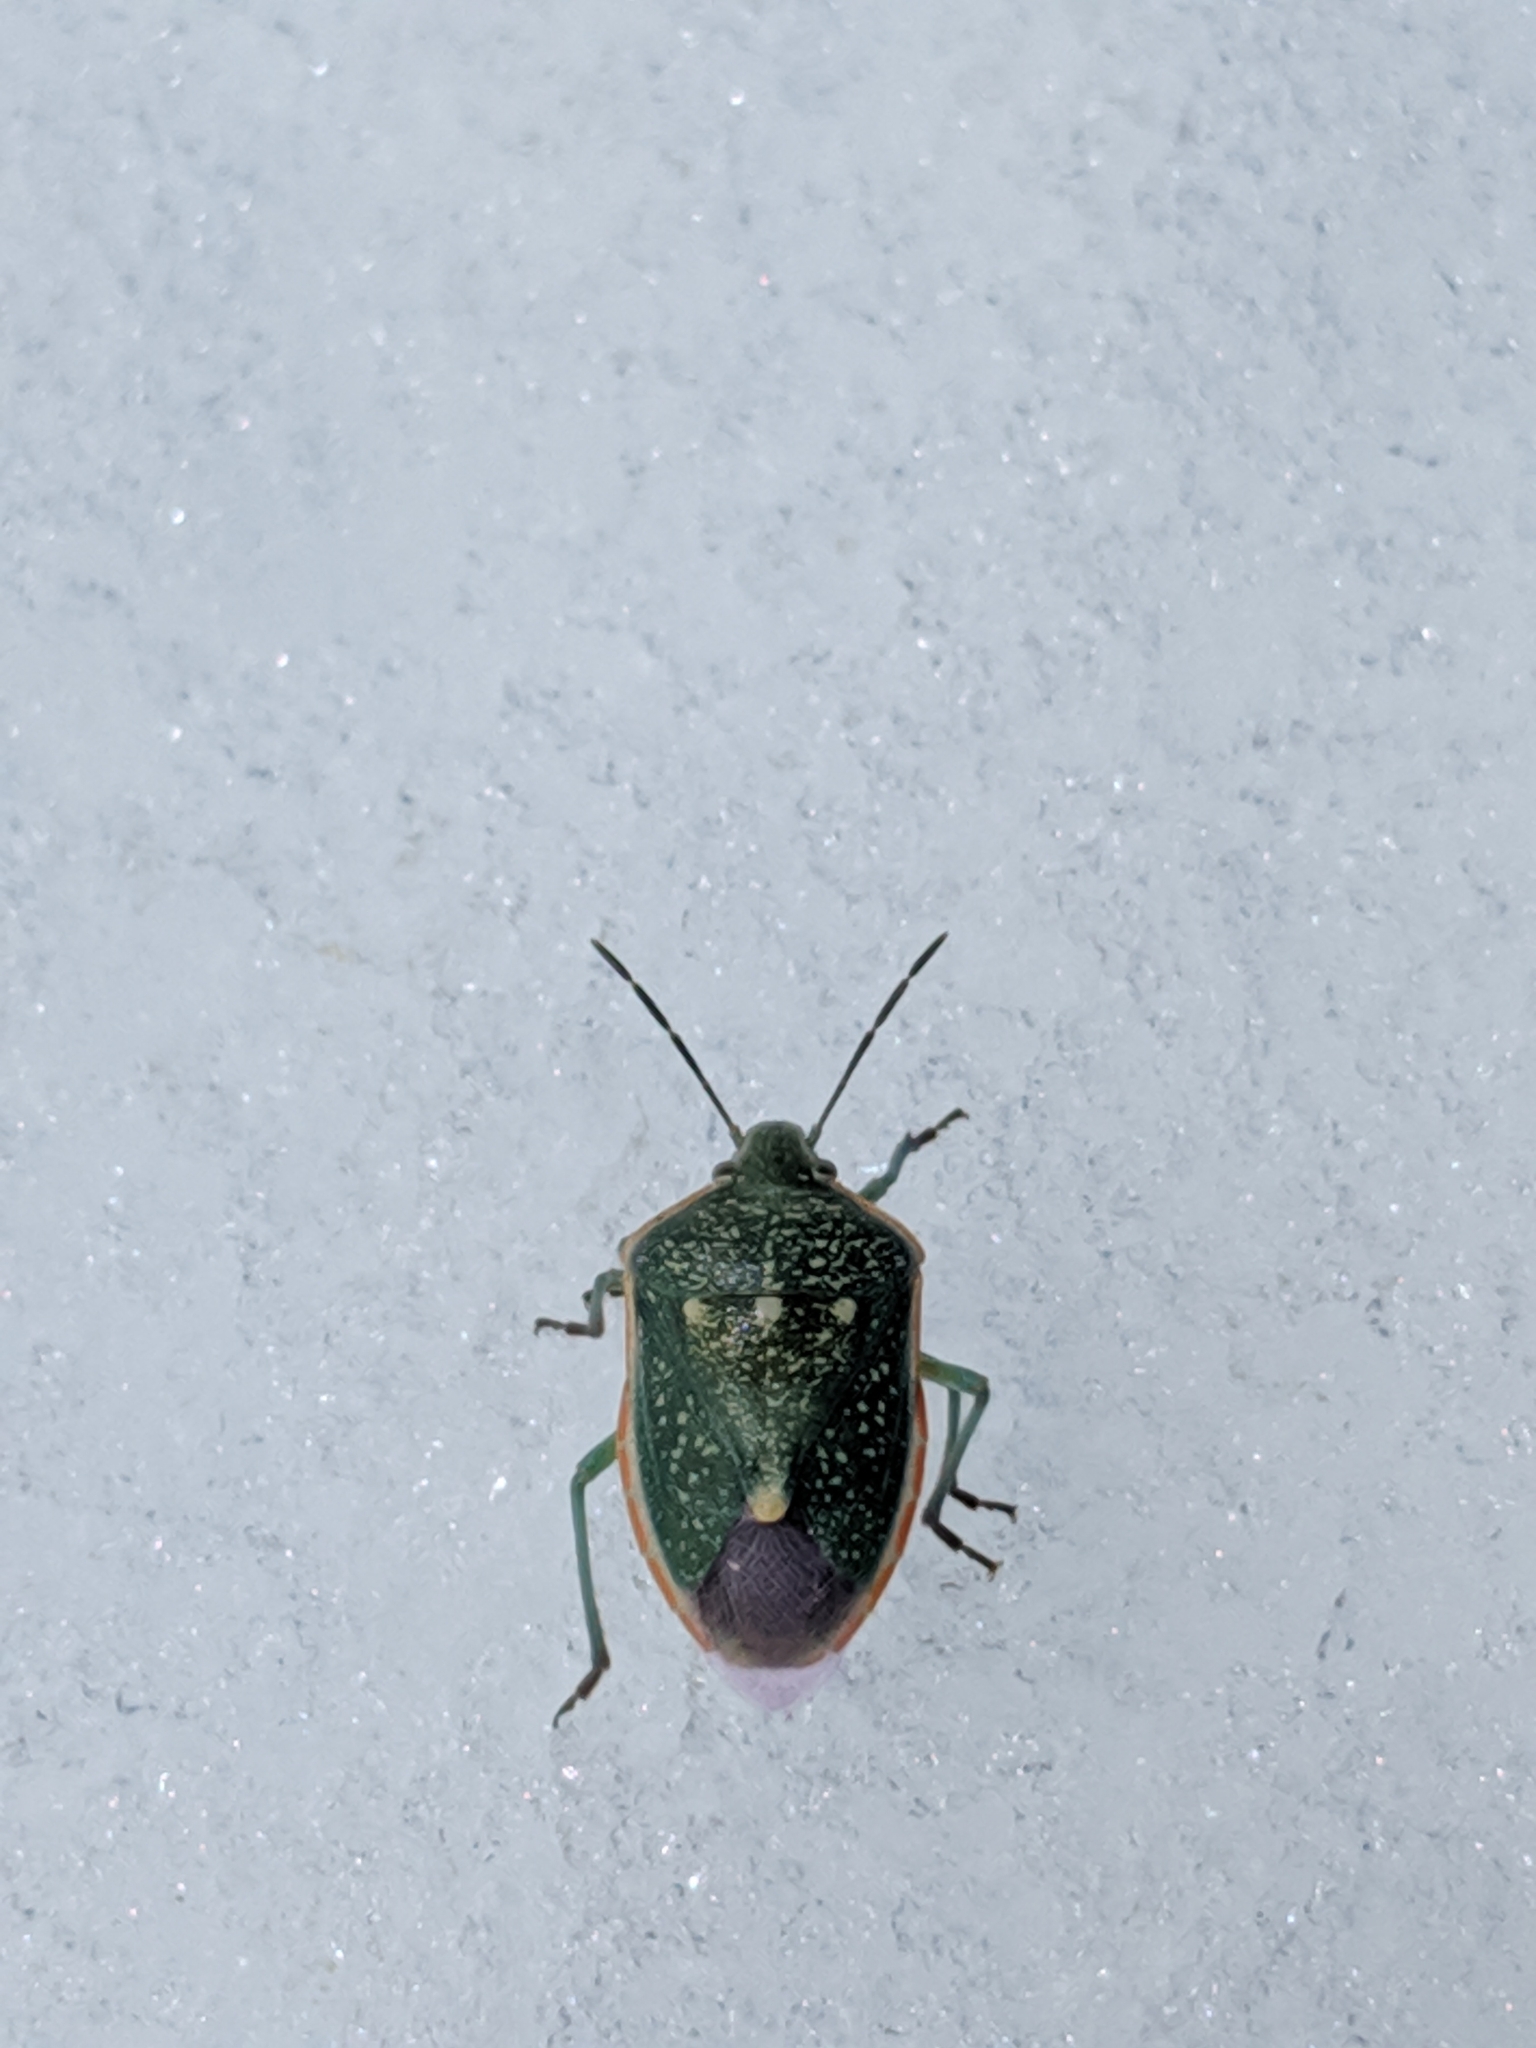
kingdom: Animalia
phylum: Arthropoda
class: Insecta
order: Hemiptera
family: Pentatomidae
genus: Chlorochroa
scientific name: Chlorochroa sayi
